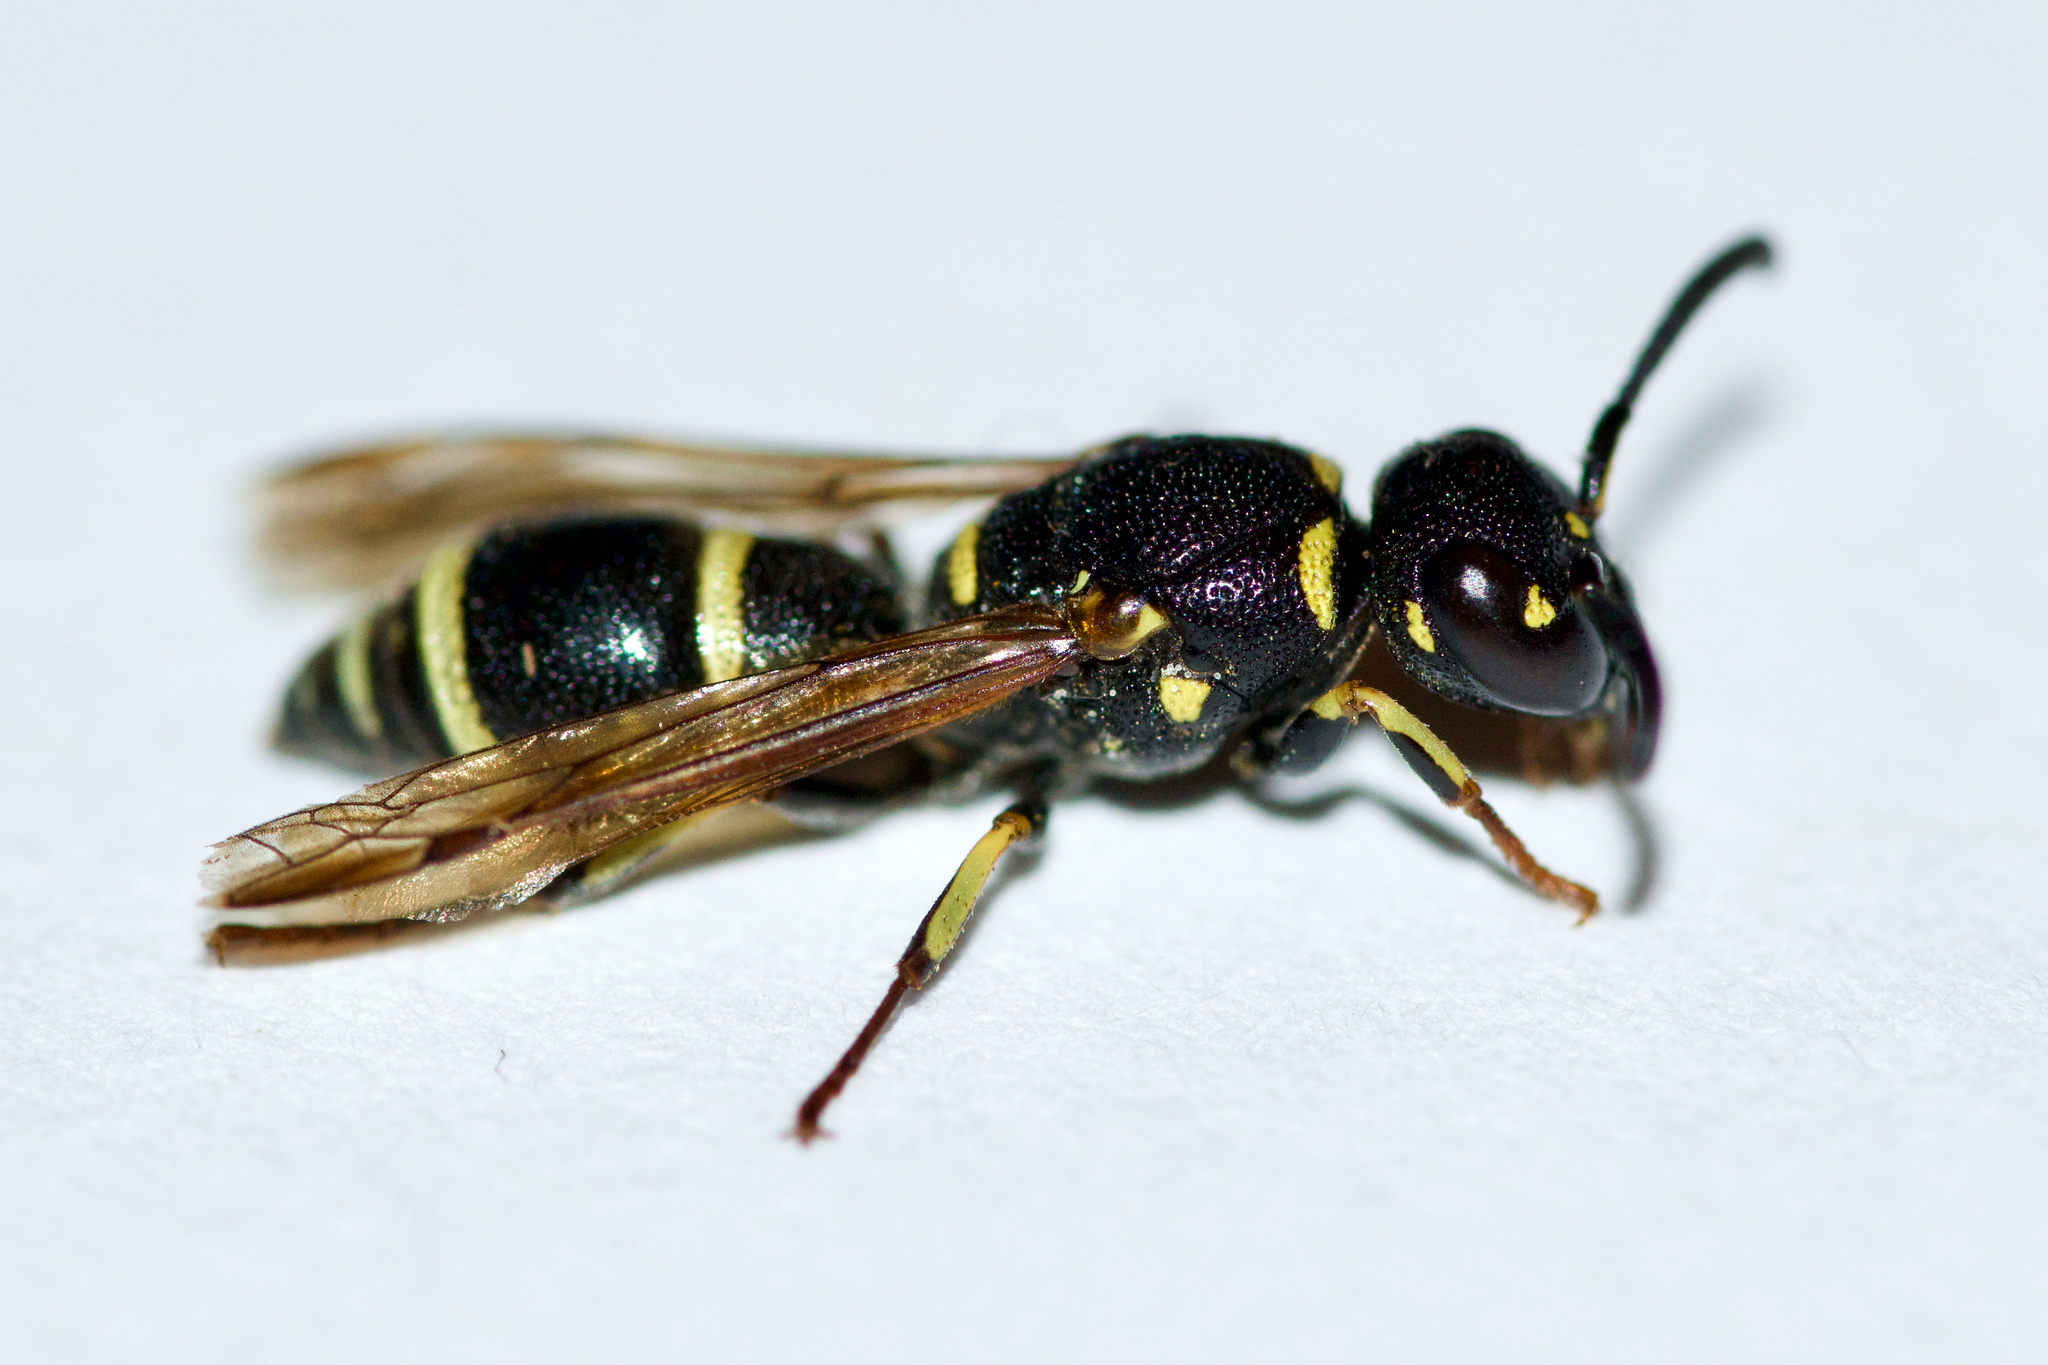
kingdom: Animalia
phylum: Arthropoda
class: Insecta
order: Hymenoptera
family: Eumenidae
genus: Parancistrocerus
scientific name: Parancistrocerus pensylvanicus
